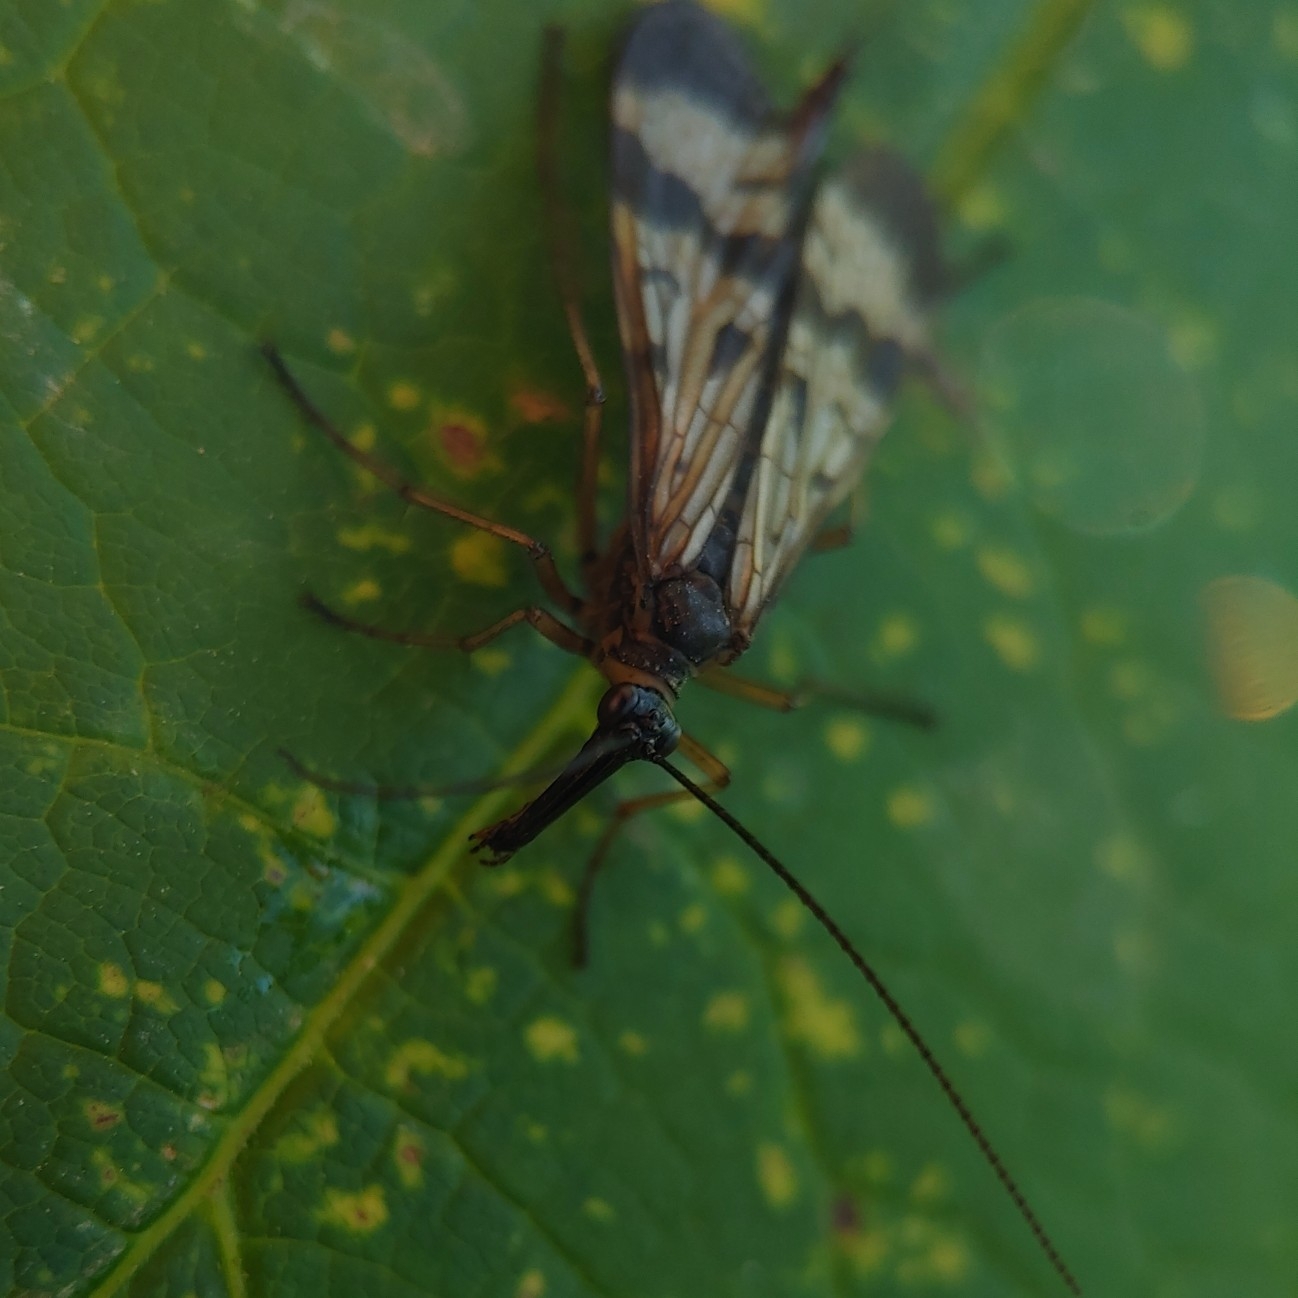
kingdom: Animalia
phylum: Arthropoda
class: Insecta
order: Mecoptera
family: Panorpidae
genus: Panorpa
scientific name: Panorpa orientalis
